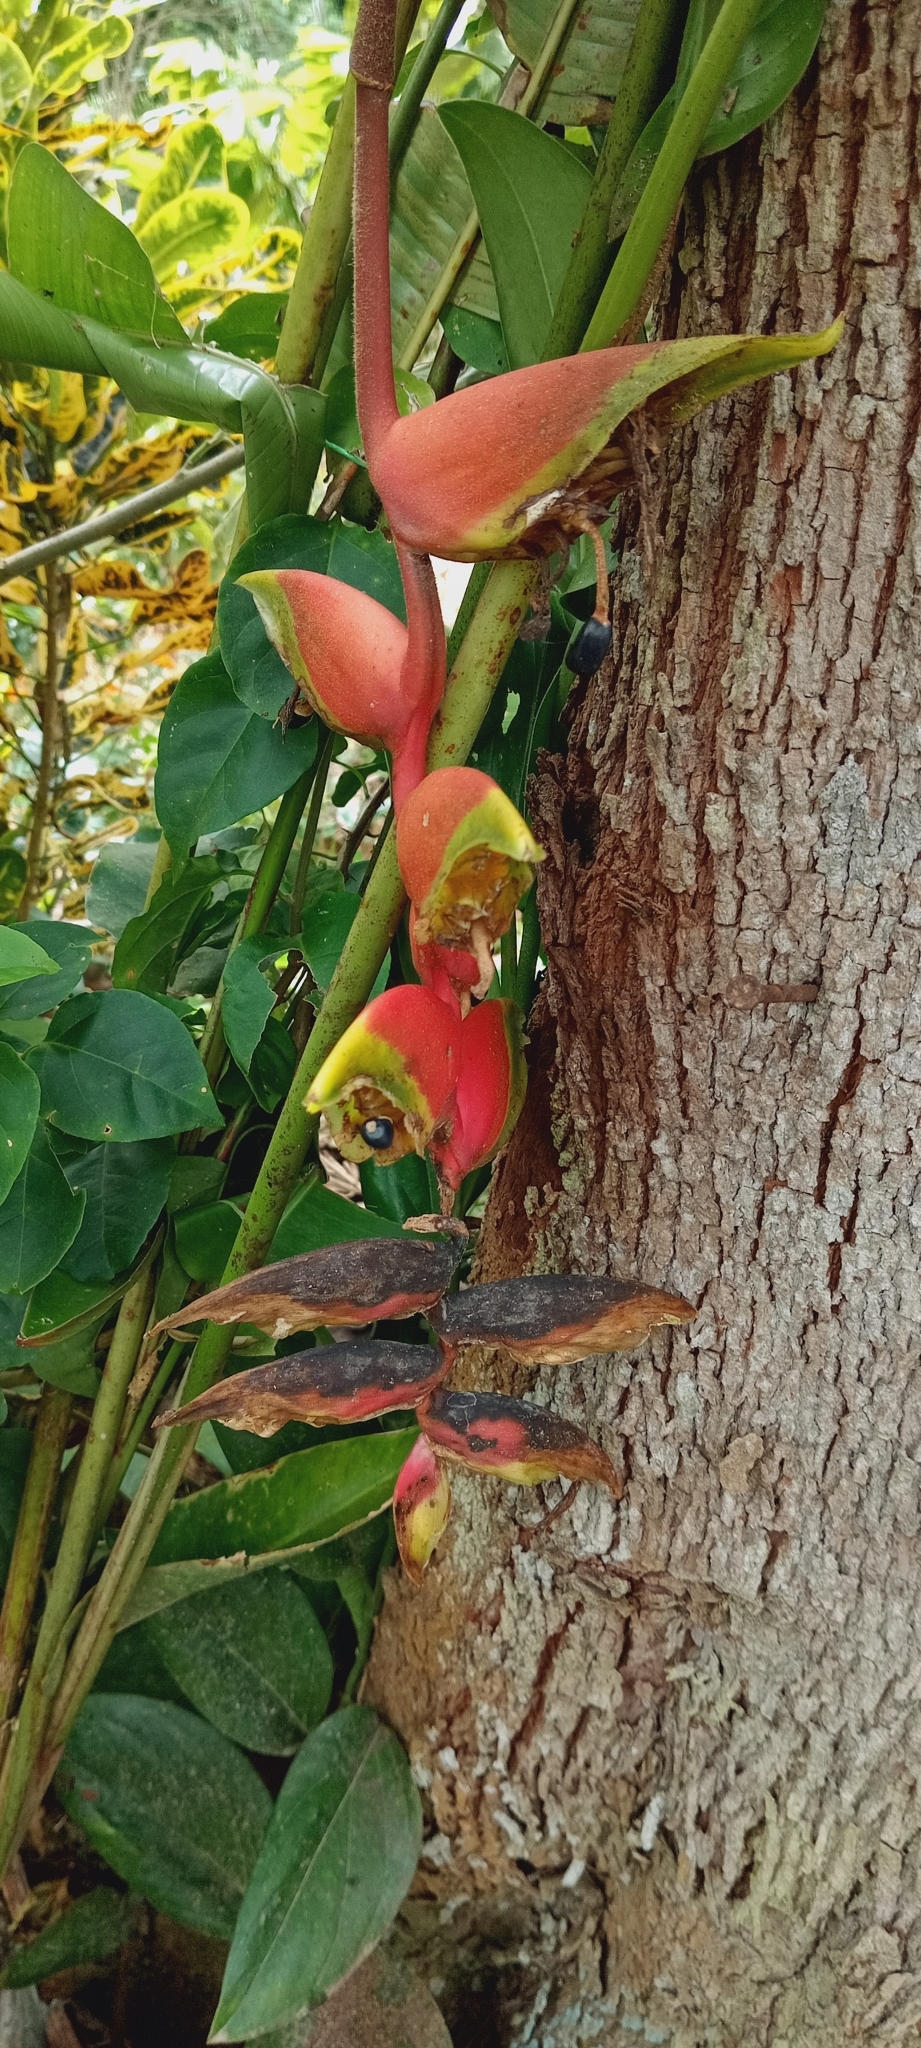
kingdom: Plantae
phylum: Tracheophyta
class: Liliopsida
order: Zingiberales
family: Heliconiaceae
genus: Heliconia
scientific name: Heliconia rostrata
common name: False bird of paradise
